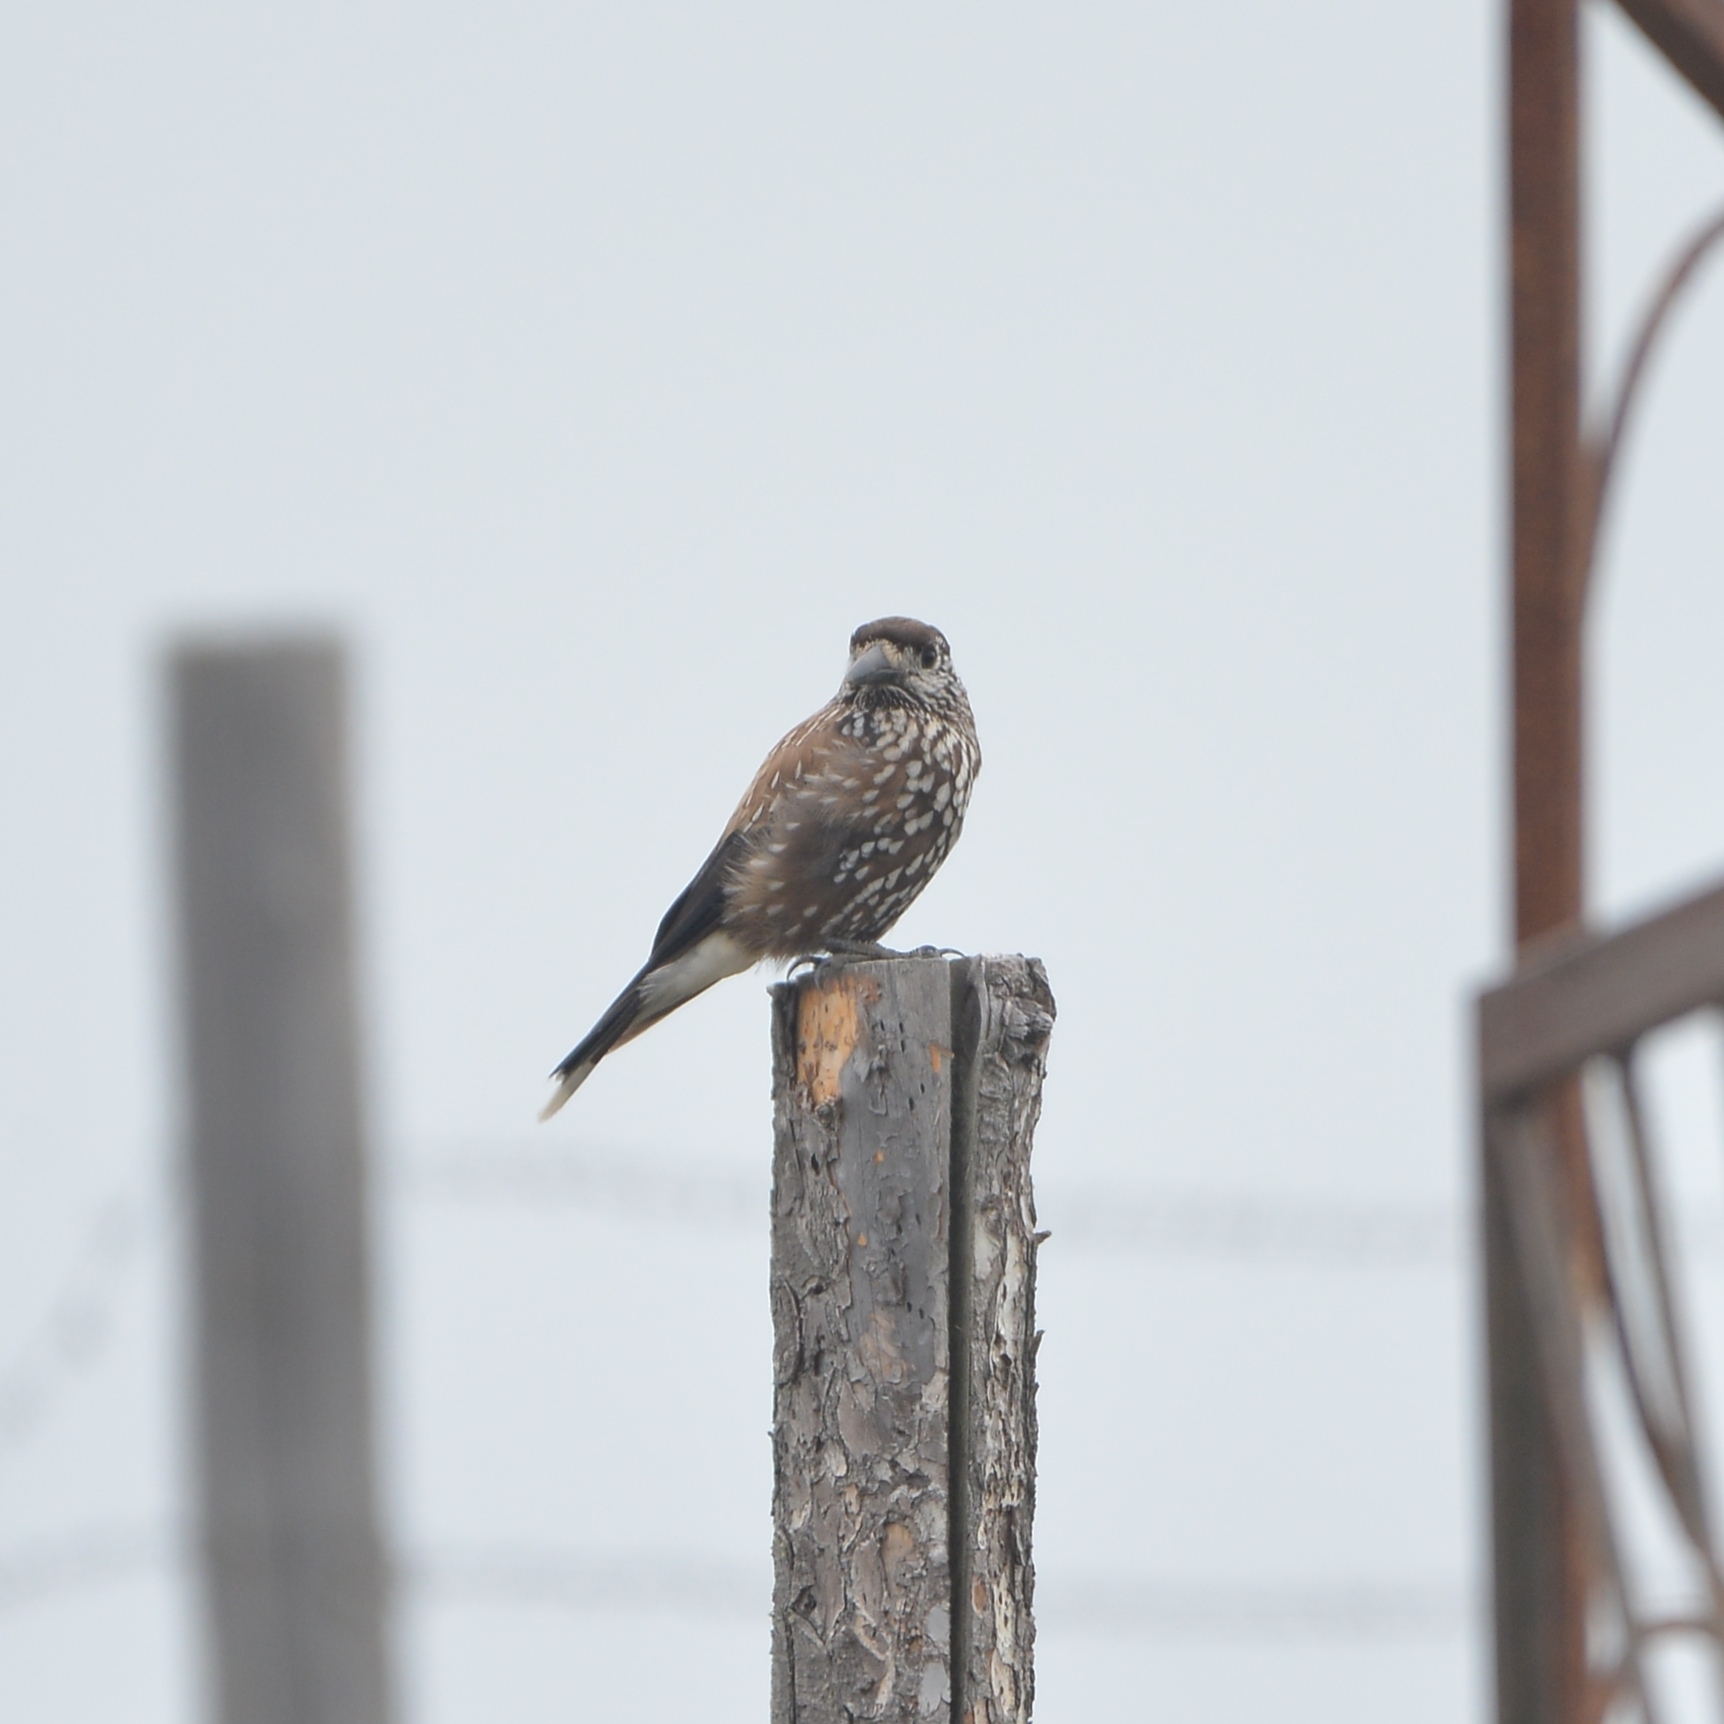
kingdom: Animalia
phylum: Chordata
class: Aves
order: Passeriformes
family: Corvidae
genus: Nucifraga
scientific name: Nucifraga caryocatactes
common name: Spotted nutcracker
